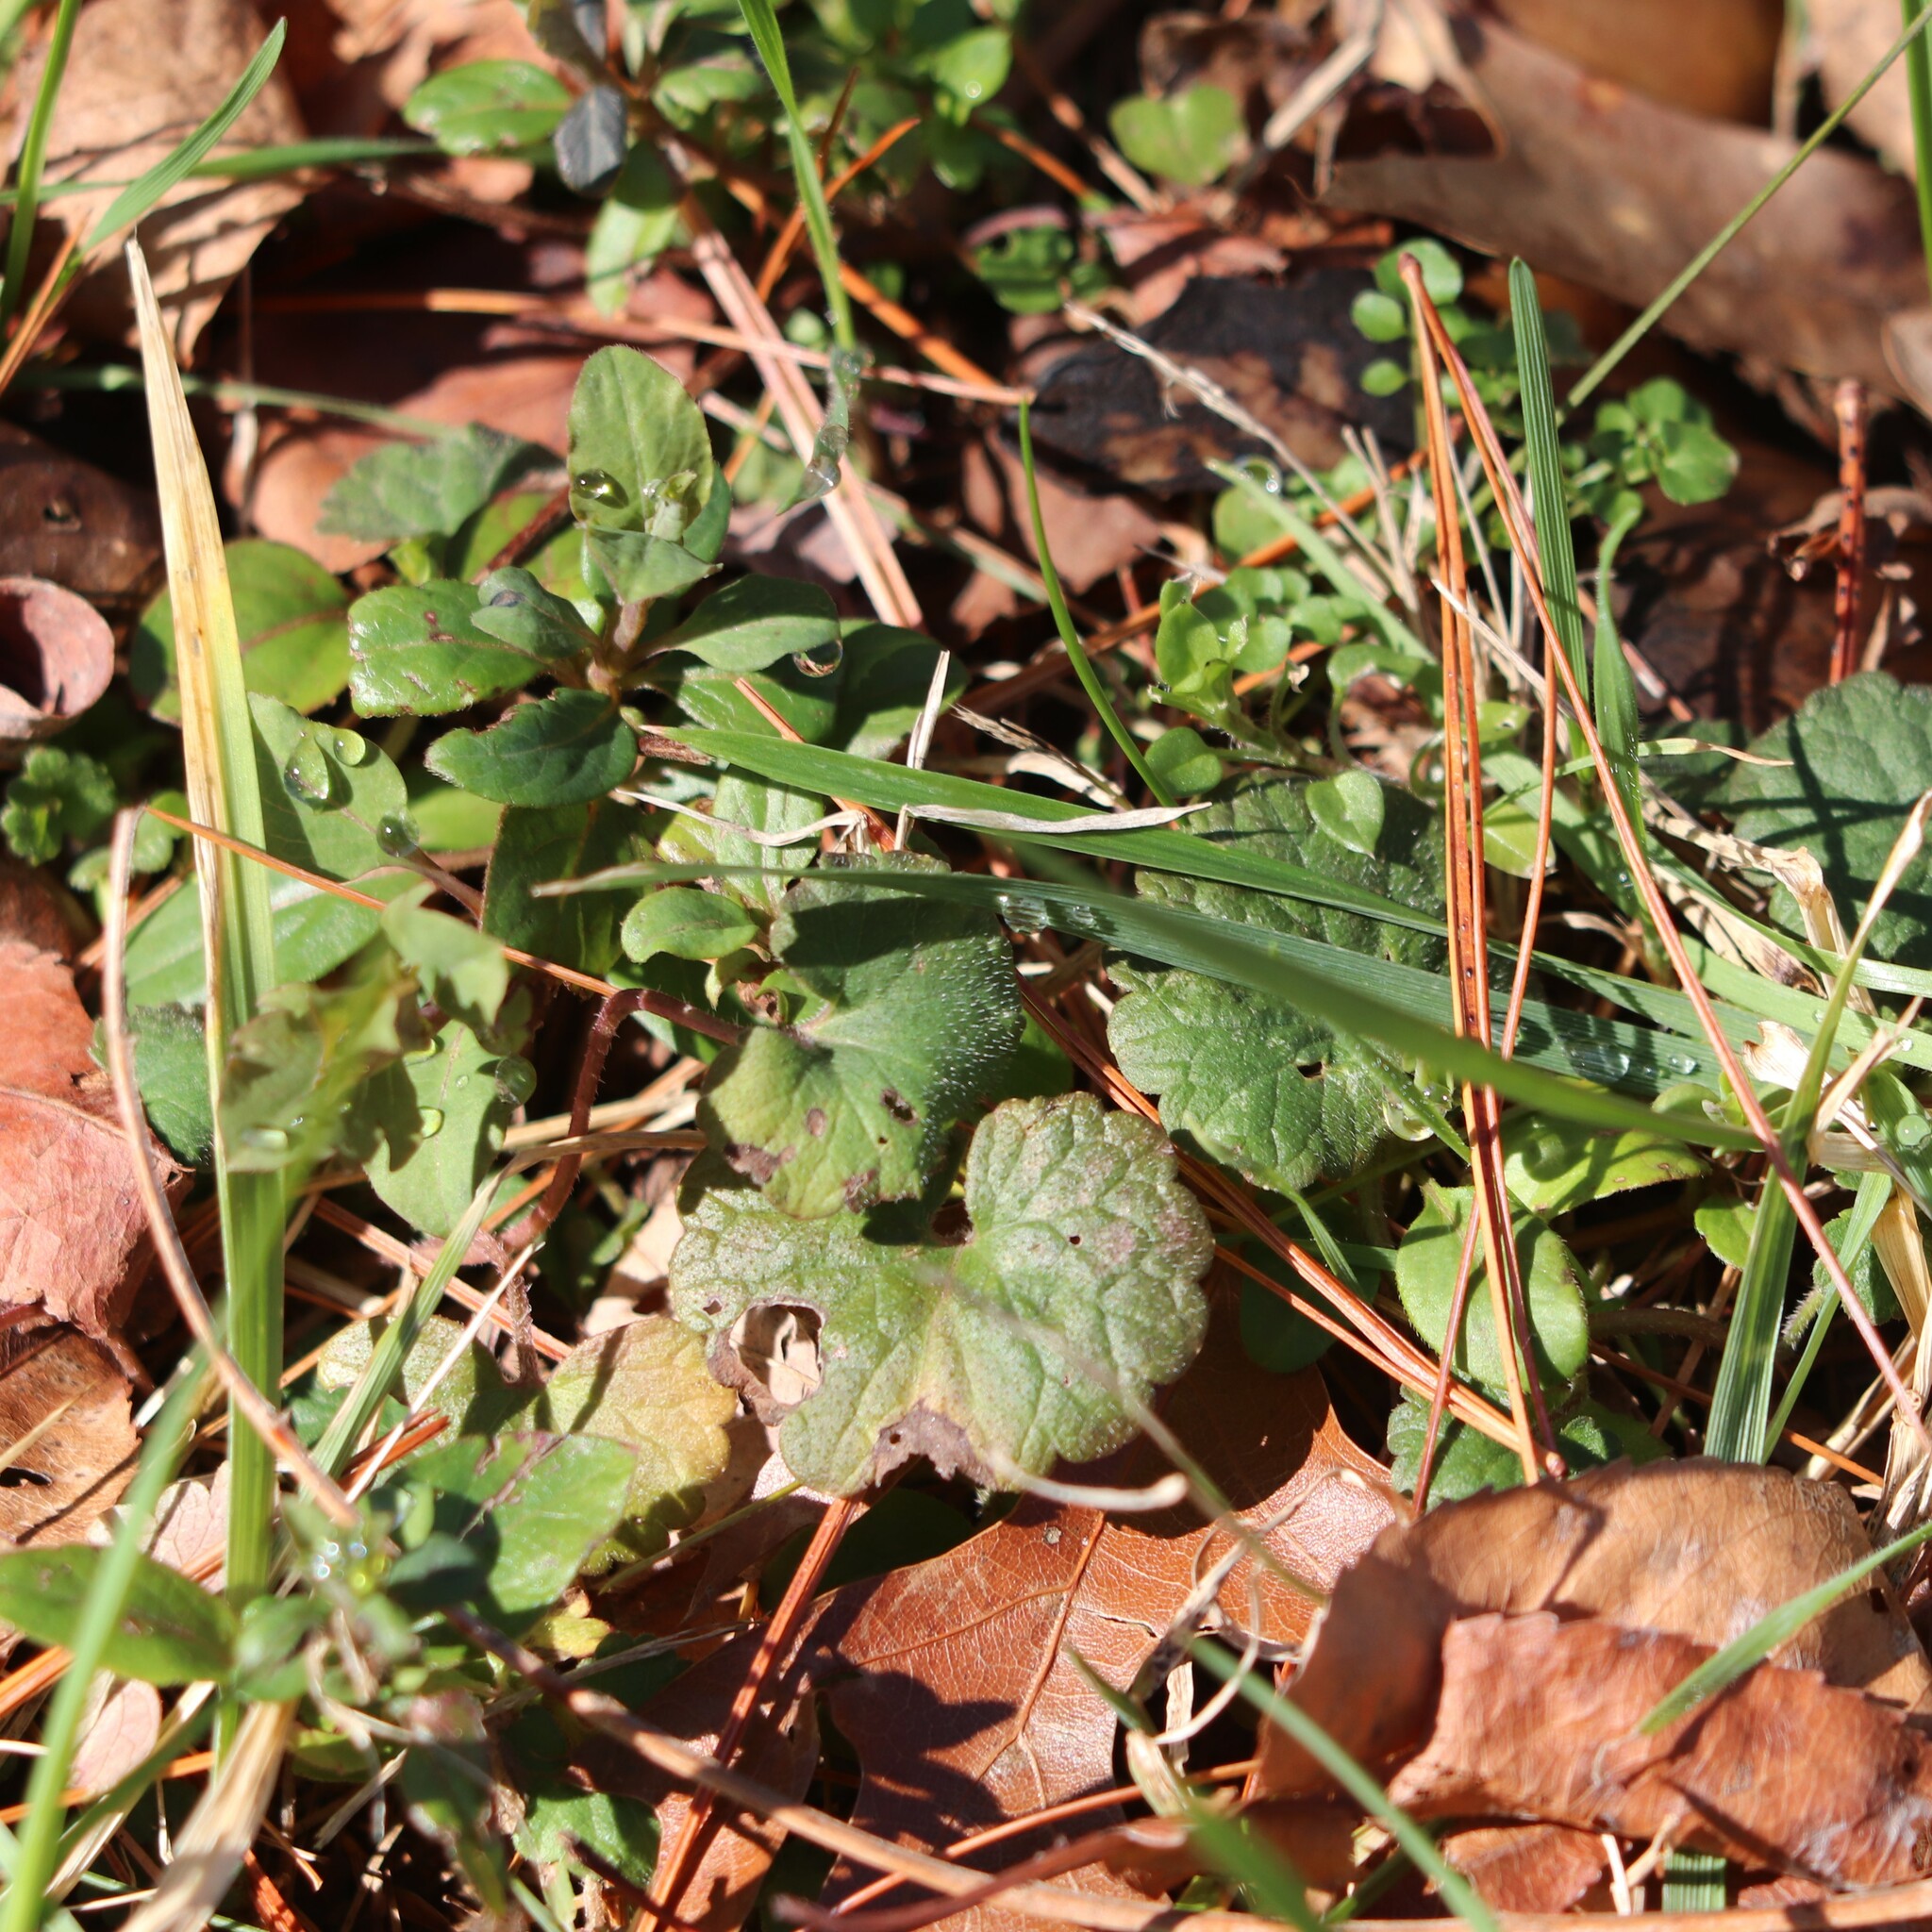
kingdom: Plantae
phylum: Tracheophyta
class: Magnoliopsida
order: Lamiales
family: Lamiaceae
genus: Glechoma
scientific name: Glechoma hederacea
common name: Ground ivy
